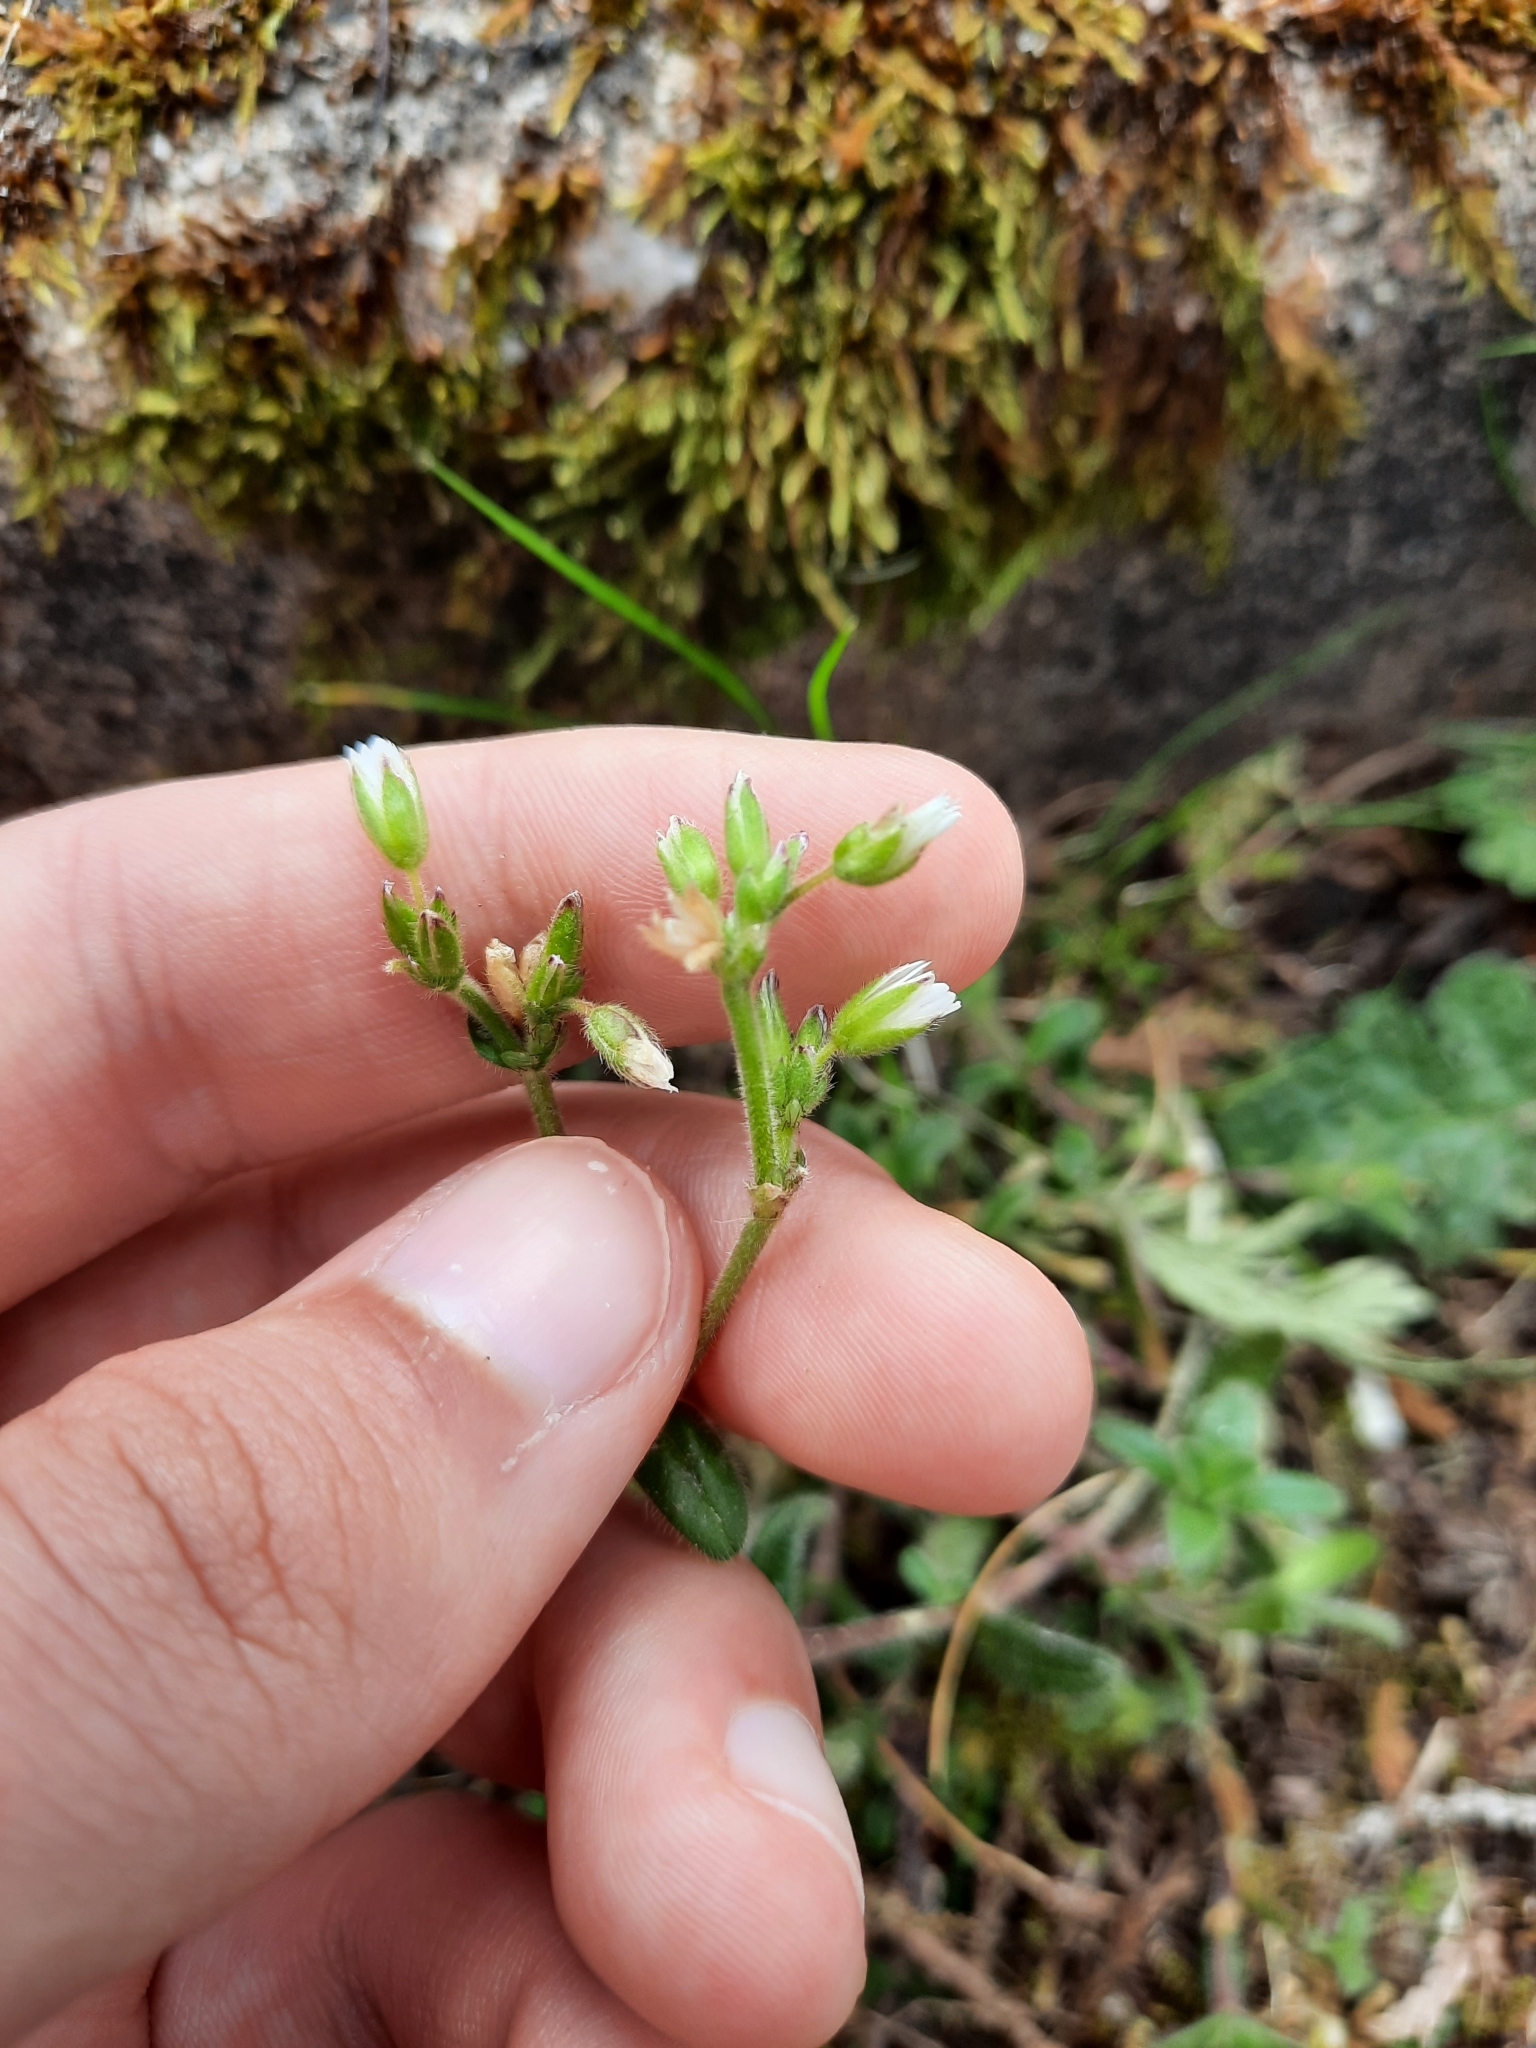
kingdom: Plantae
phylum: Tracheophyta
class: Magnoliopsida
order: Caryophyllales
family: Caryophyllaceae
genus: Cerastium
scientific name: Cerastium fontanum
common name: Common mouse-ear
